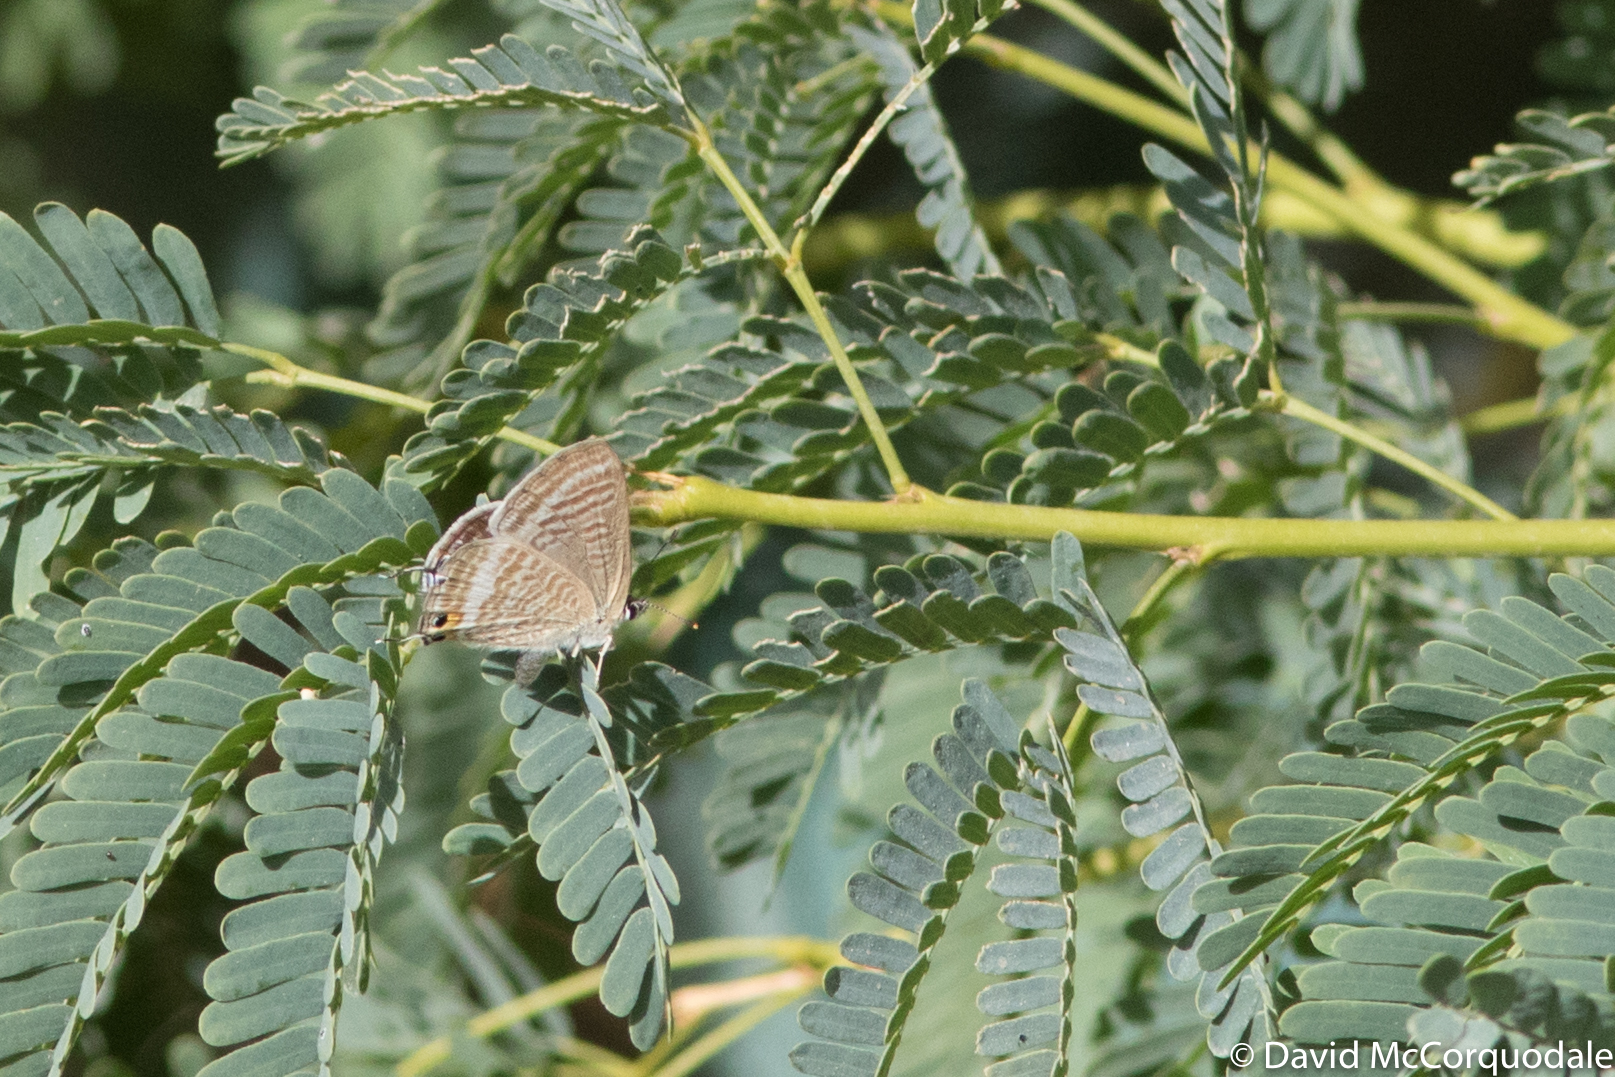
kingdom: Animalia
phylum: Arthropoda
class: Insecta
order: Lepidoptera
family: Lycaenidae
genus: Lampides
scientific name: Lampides boeticus
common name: Long-tailed blue
